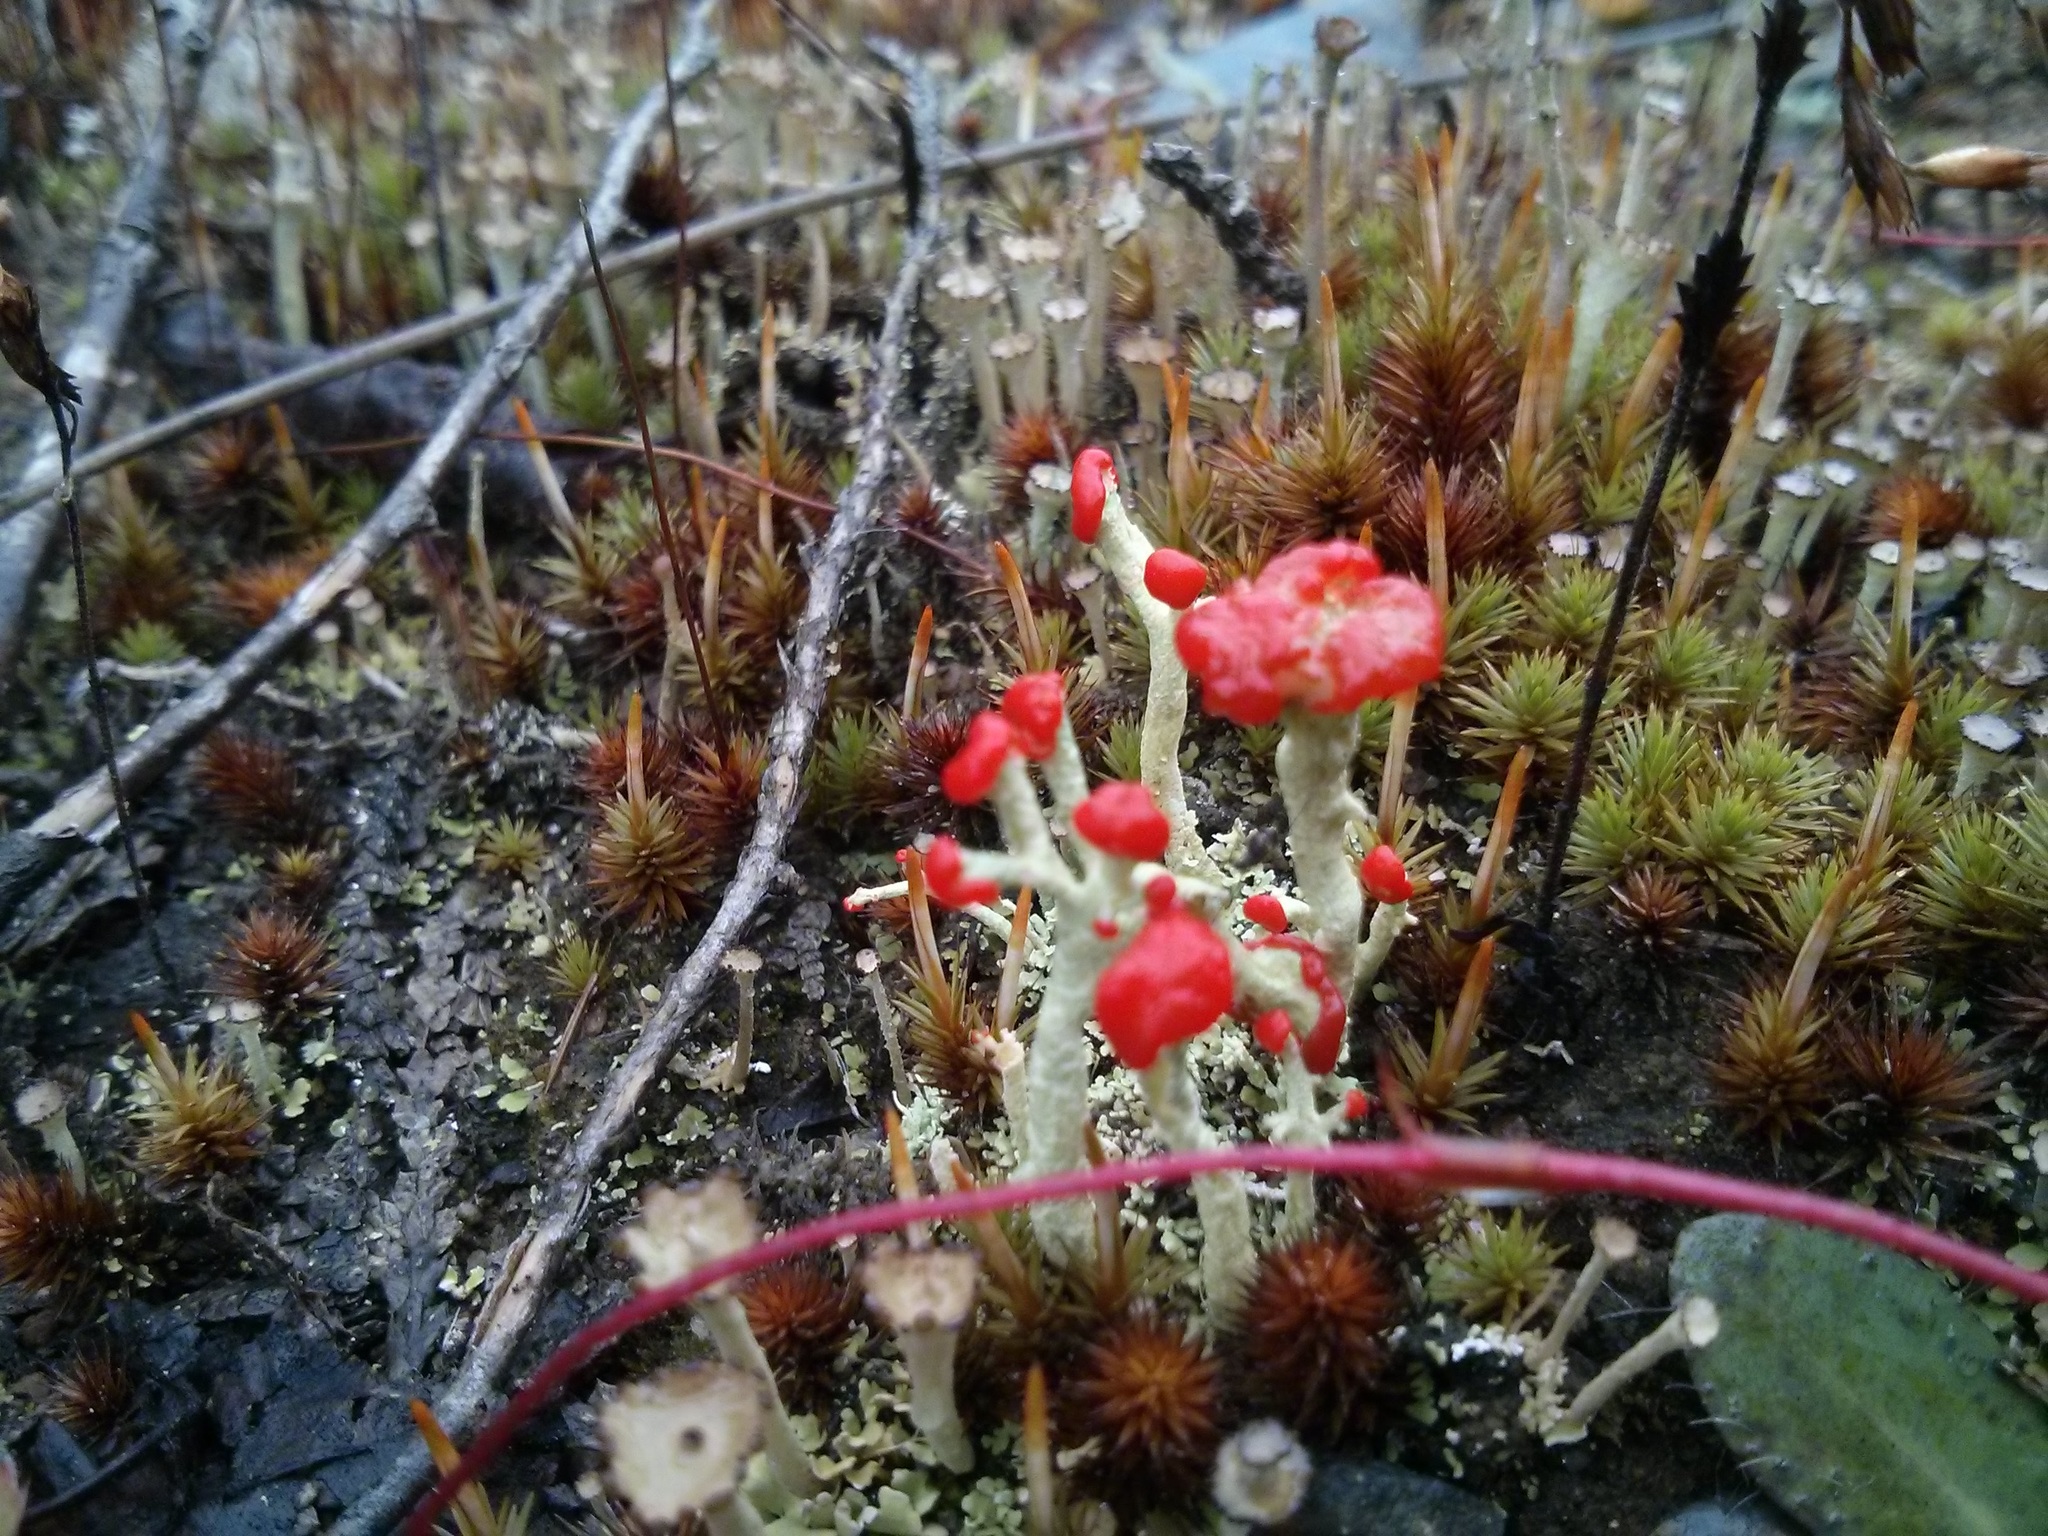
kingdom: Fungi
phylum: Ascomycota
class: Lecanoromycetes
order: Lecanorales
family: Cladoniaceae
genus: Cladonia
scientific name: Cladonia cristatella
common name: British soldier lichen
